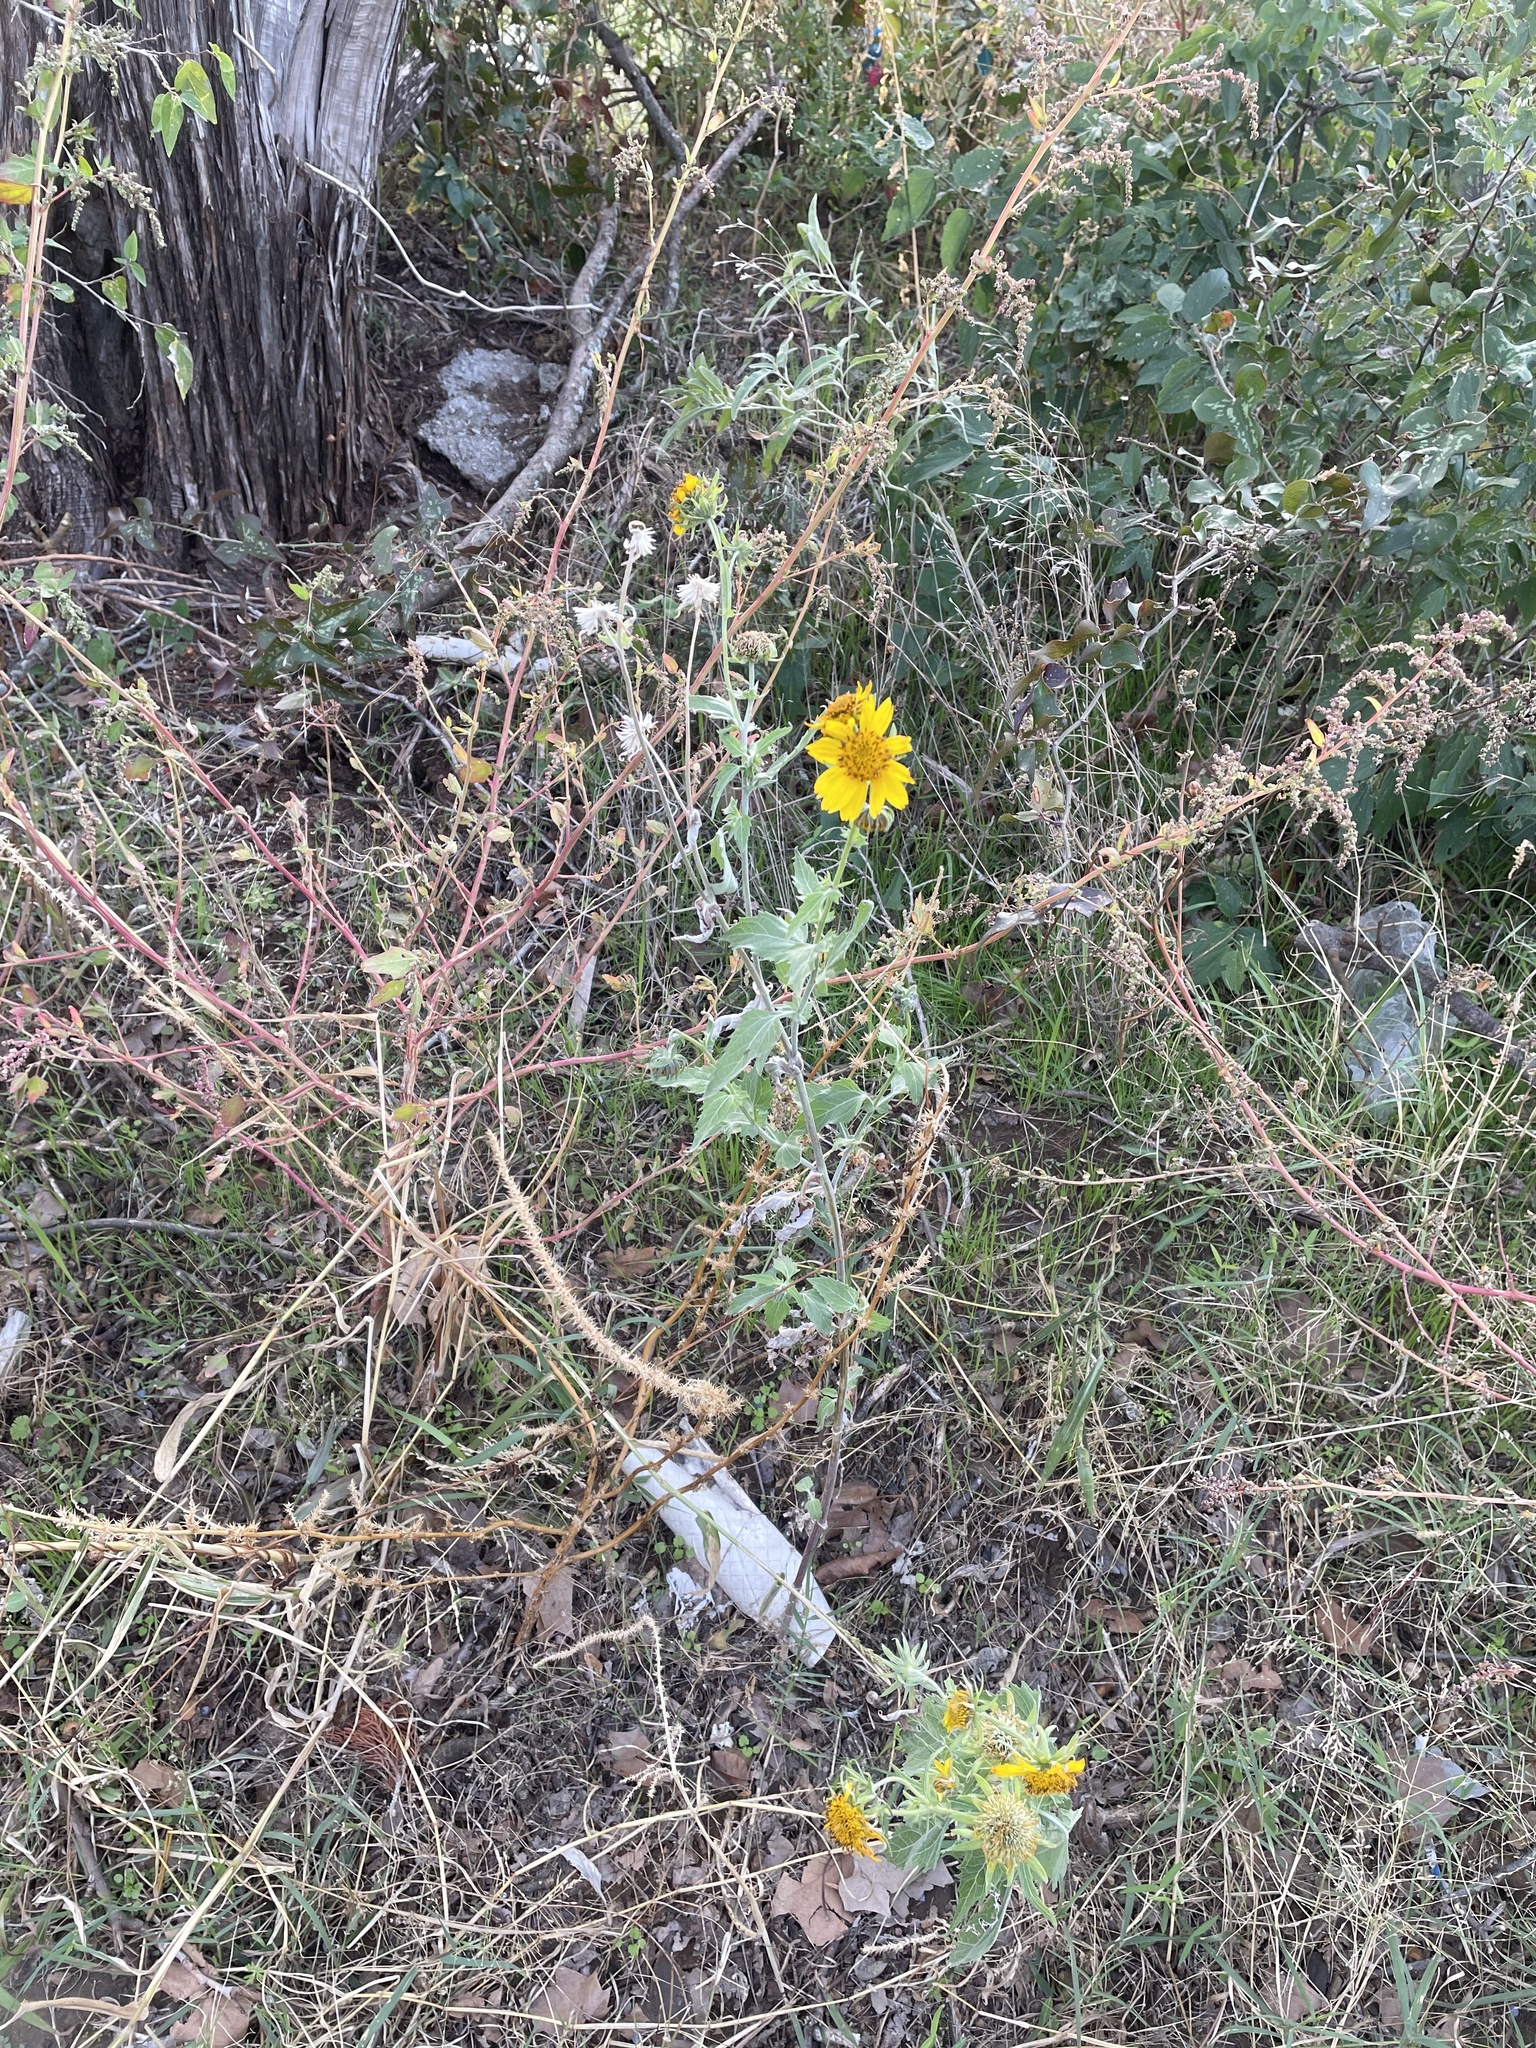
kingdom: Plantae
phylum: Tracheophyta
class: Magnoliopsida
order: Asterales
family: Asteraceae
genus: Verbesina
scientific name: Verbesina encelioides
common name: Golden crownbeard
